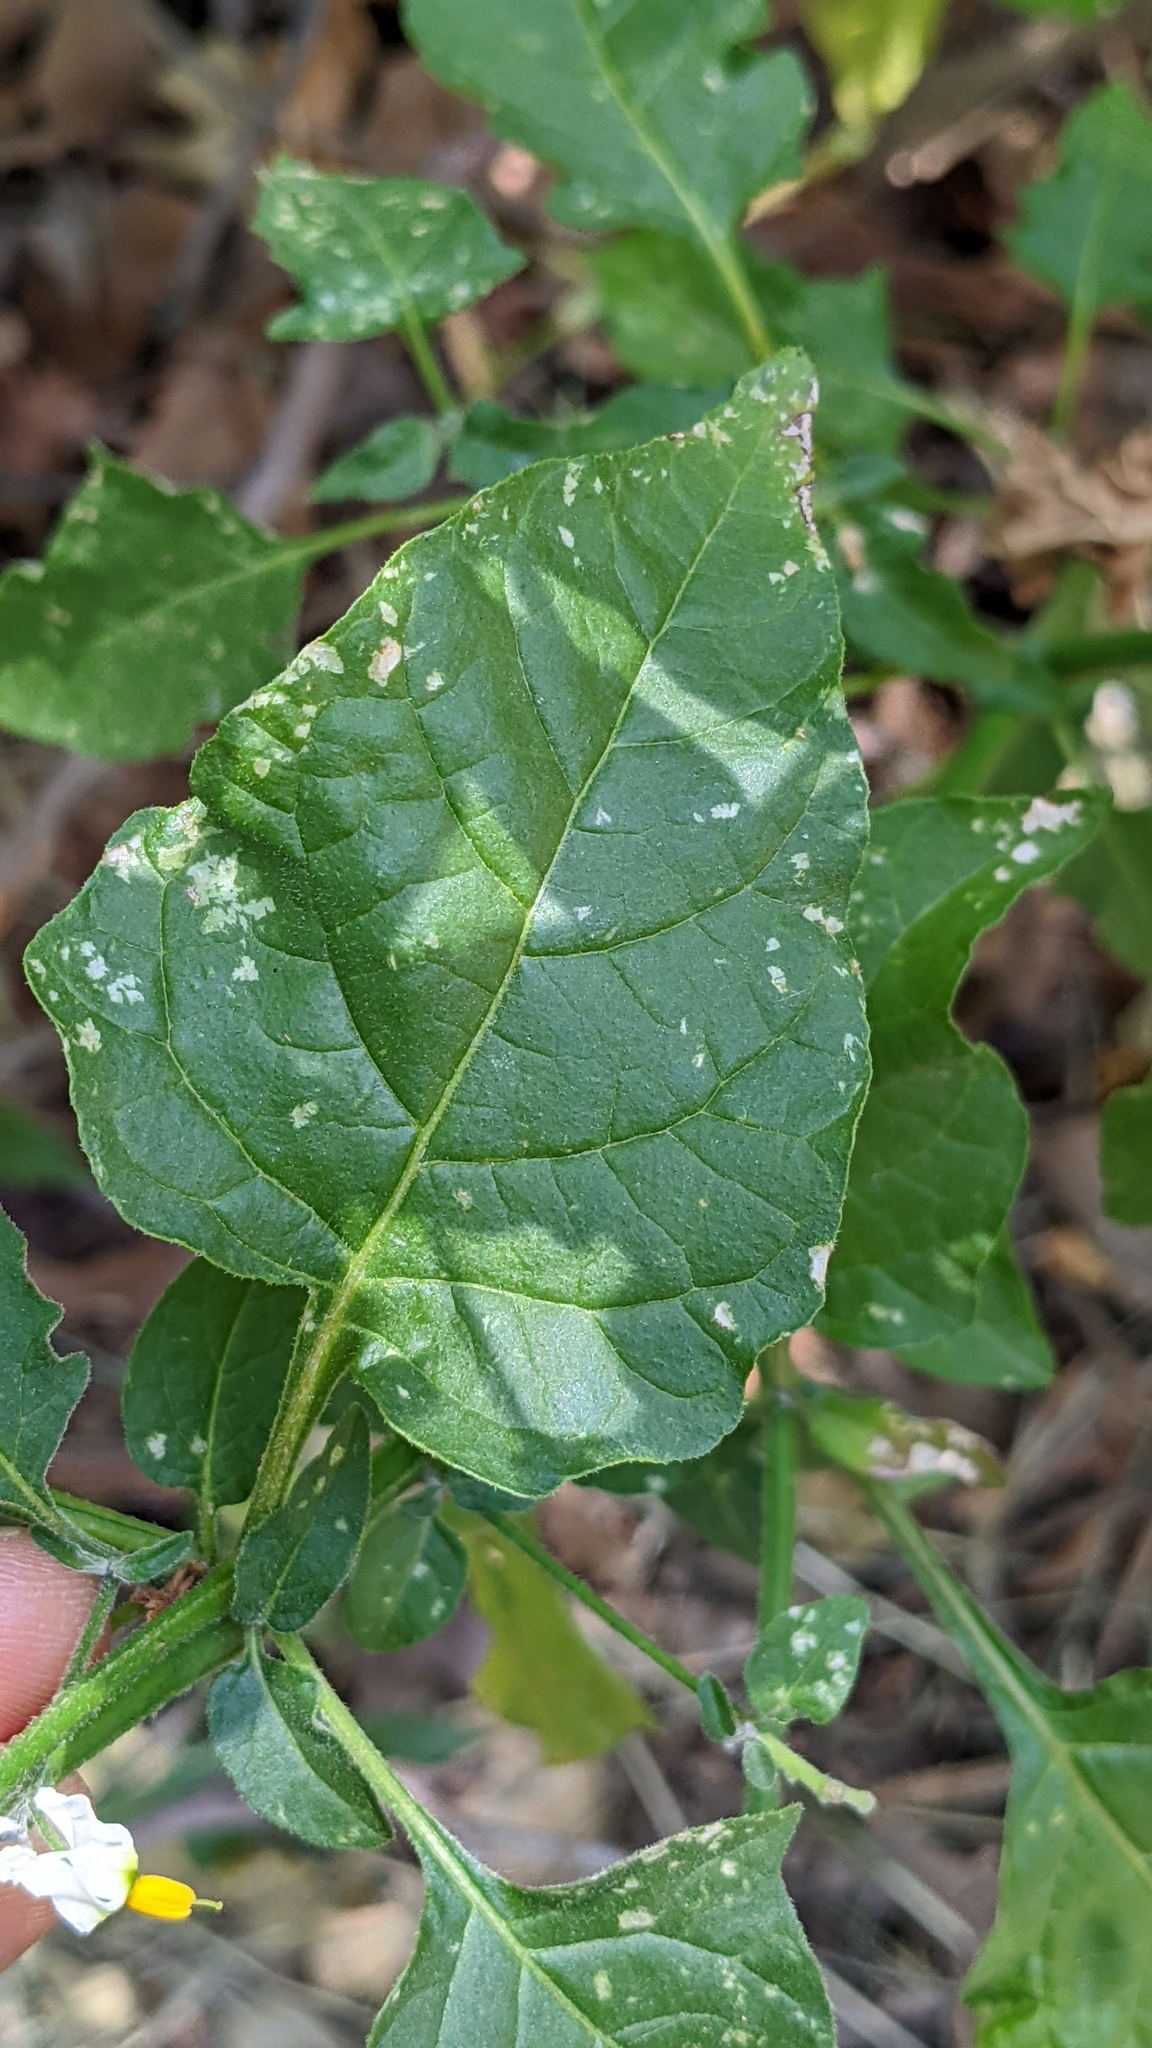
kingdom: Plantae
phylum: Tracheophyta
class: Magnoliopsida
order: Solanales
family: Solanaceae
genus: Solanum
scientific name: Solanum douglasii
